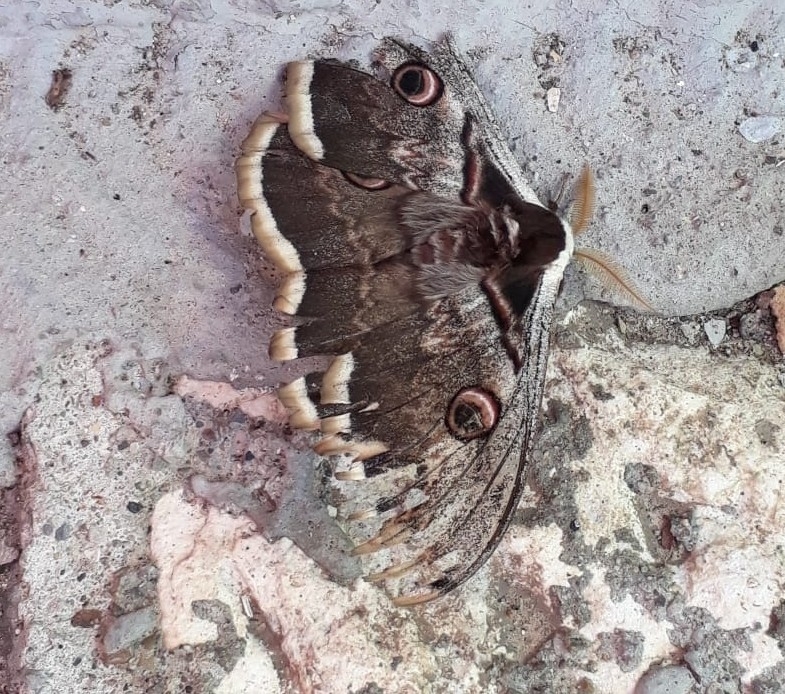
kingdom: Animalia
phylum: Arthropoda
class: Insecta
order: Lepidoptera
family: Saturniidae
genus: Saturnia
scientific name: Saturnia pyri
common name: Great peacock moth
